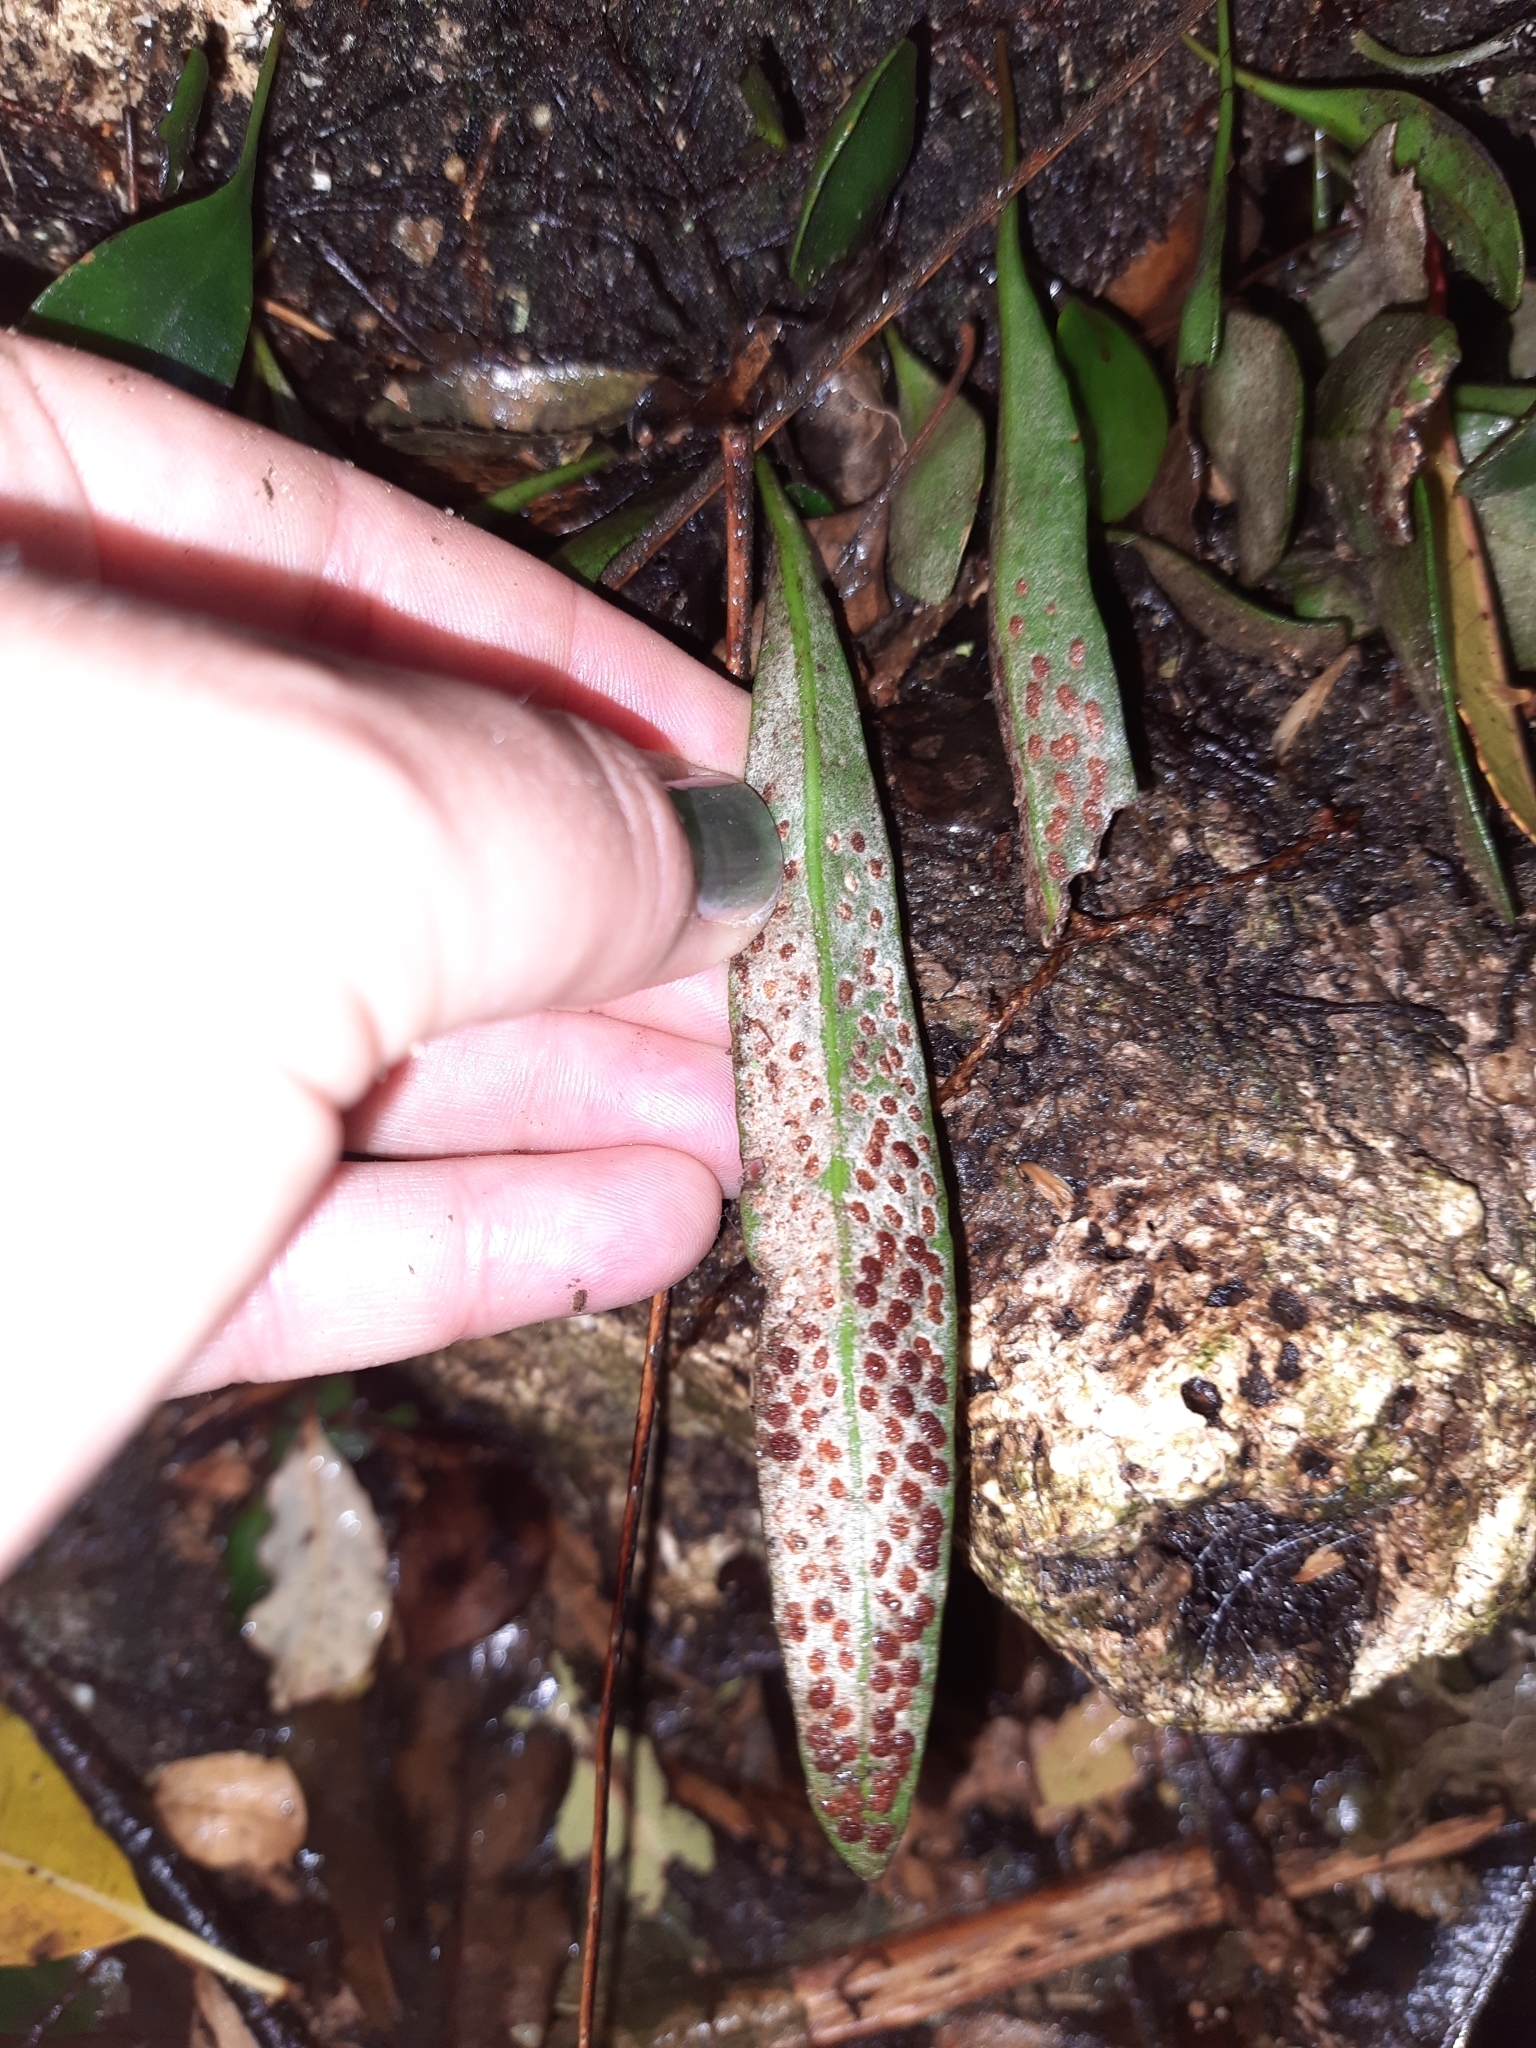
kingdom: Plantae
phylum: Tracheophyta
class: Polypodiopsida
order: Polypodiales
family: Polypodiaceae
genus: Pyrrosia
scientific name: Pyrrosia eleagnifolia
